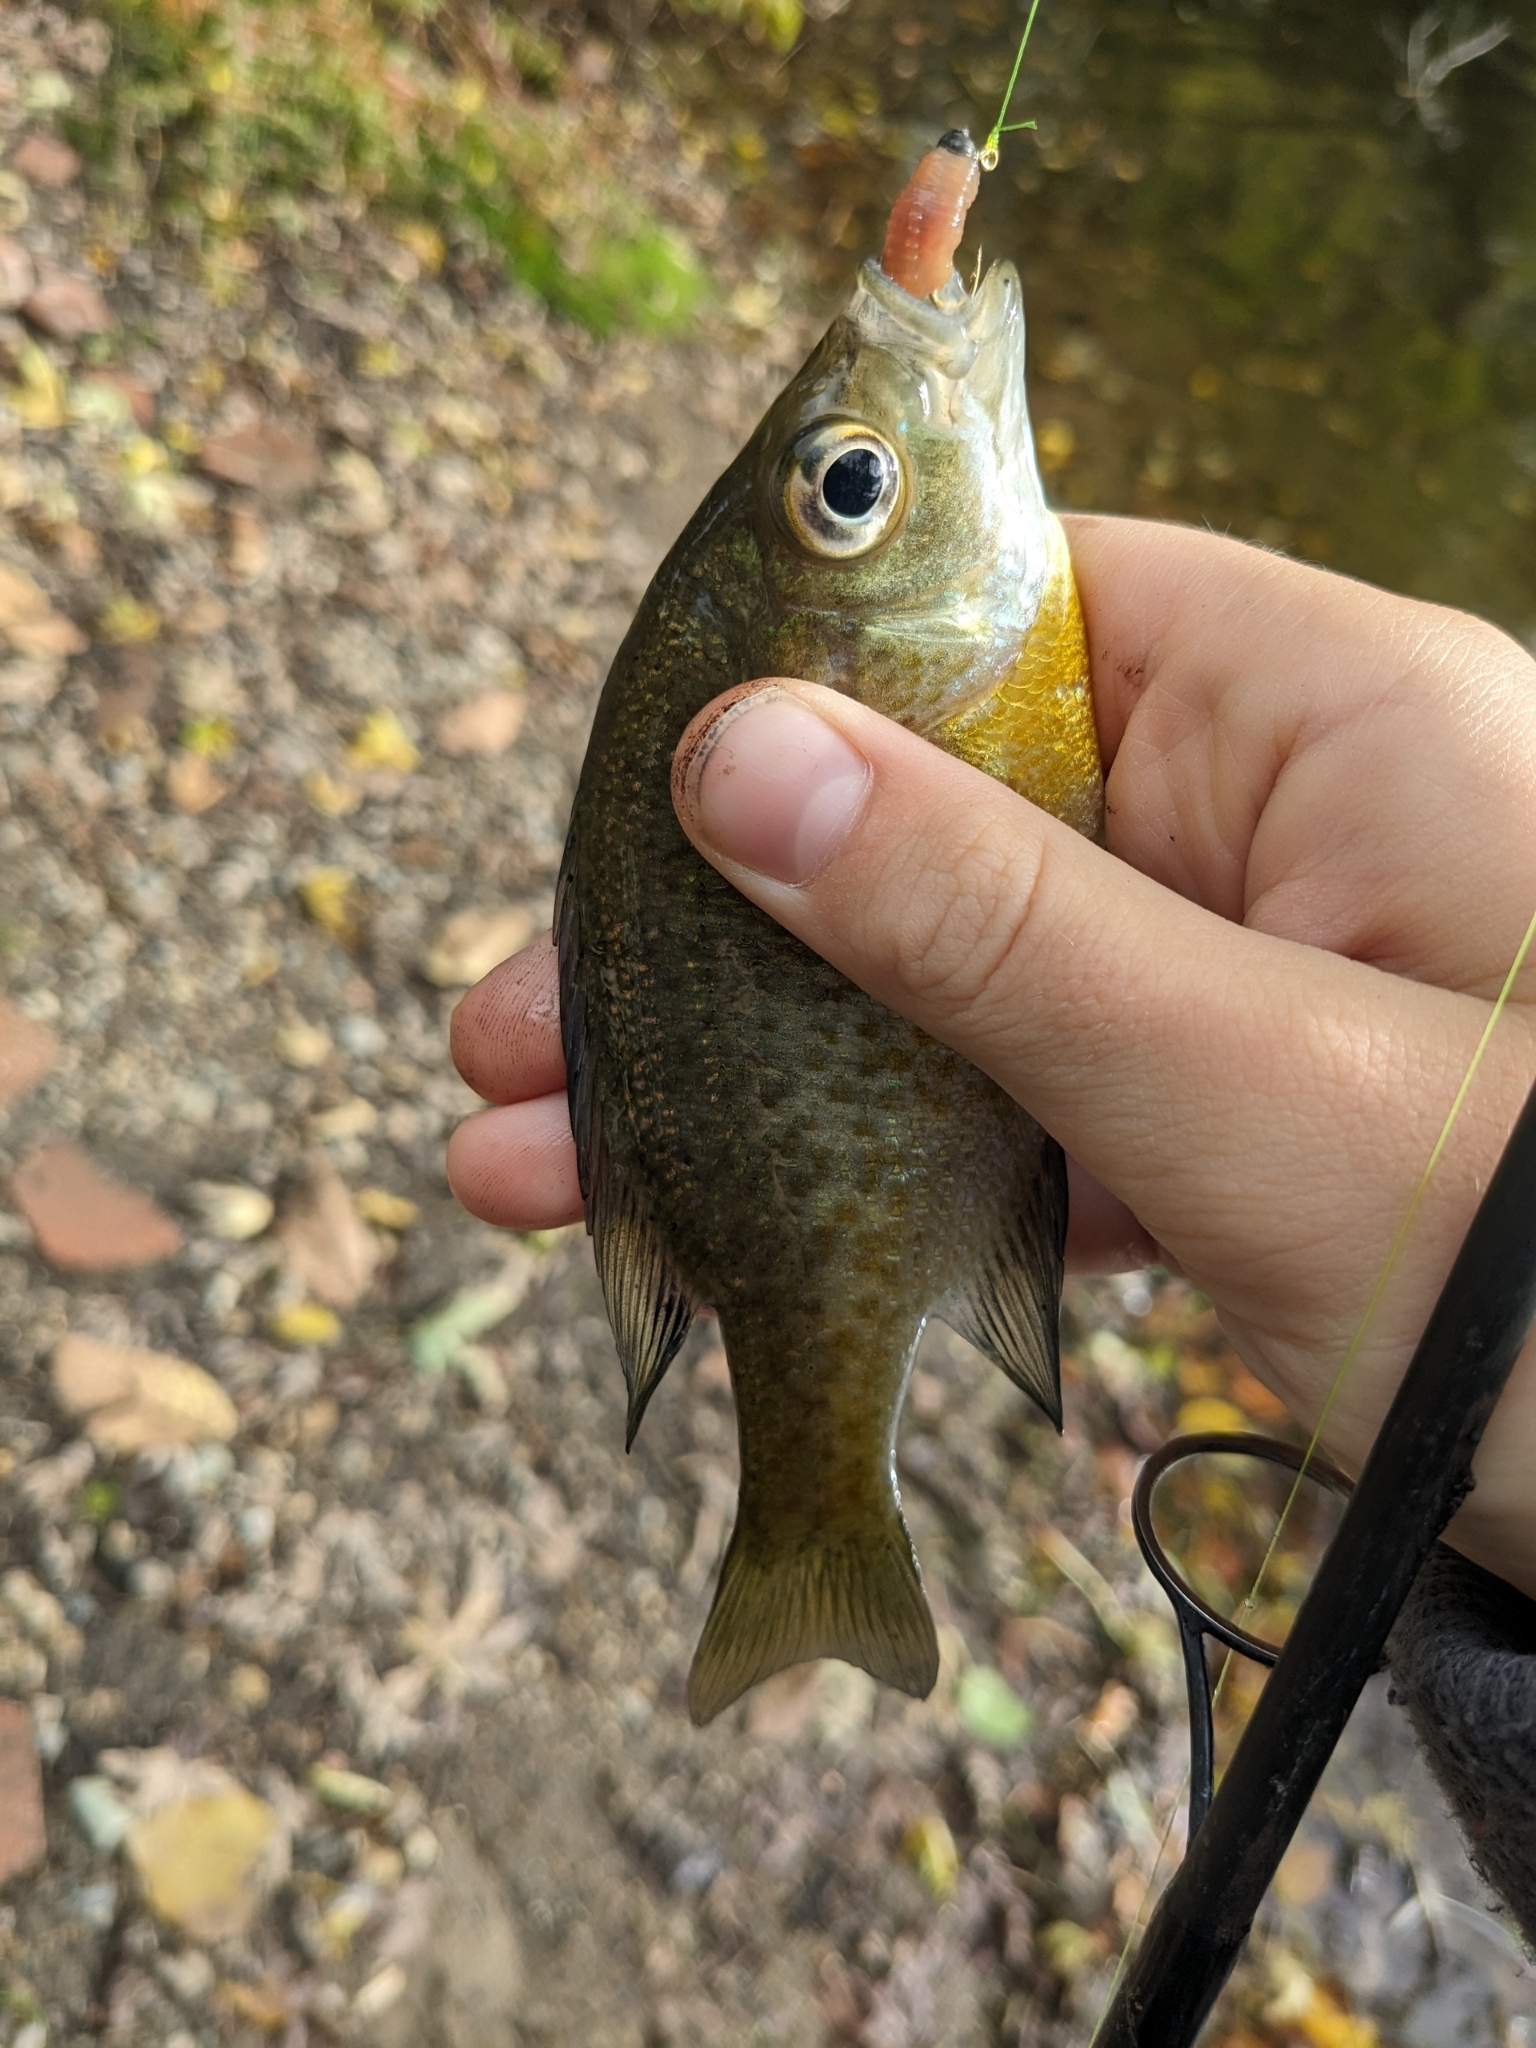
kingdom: Animalia
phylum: Chordata
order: Perciformes
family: Centrarchidae
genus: Lepomis
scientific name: Lepomis macrochirus
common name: Bluegill
